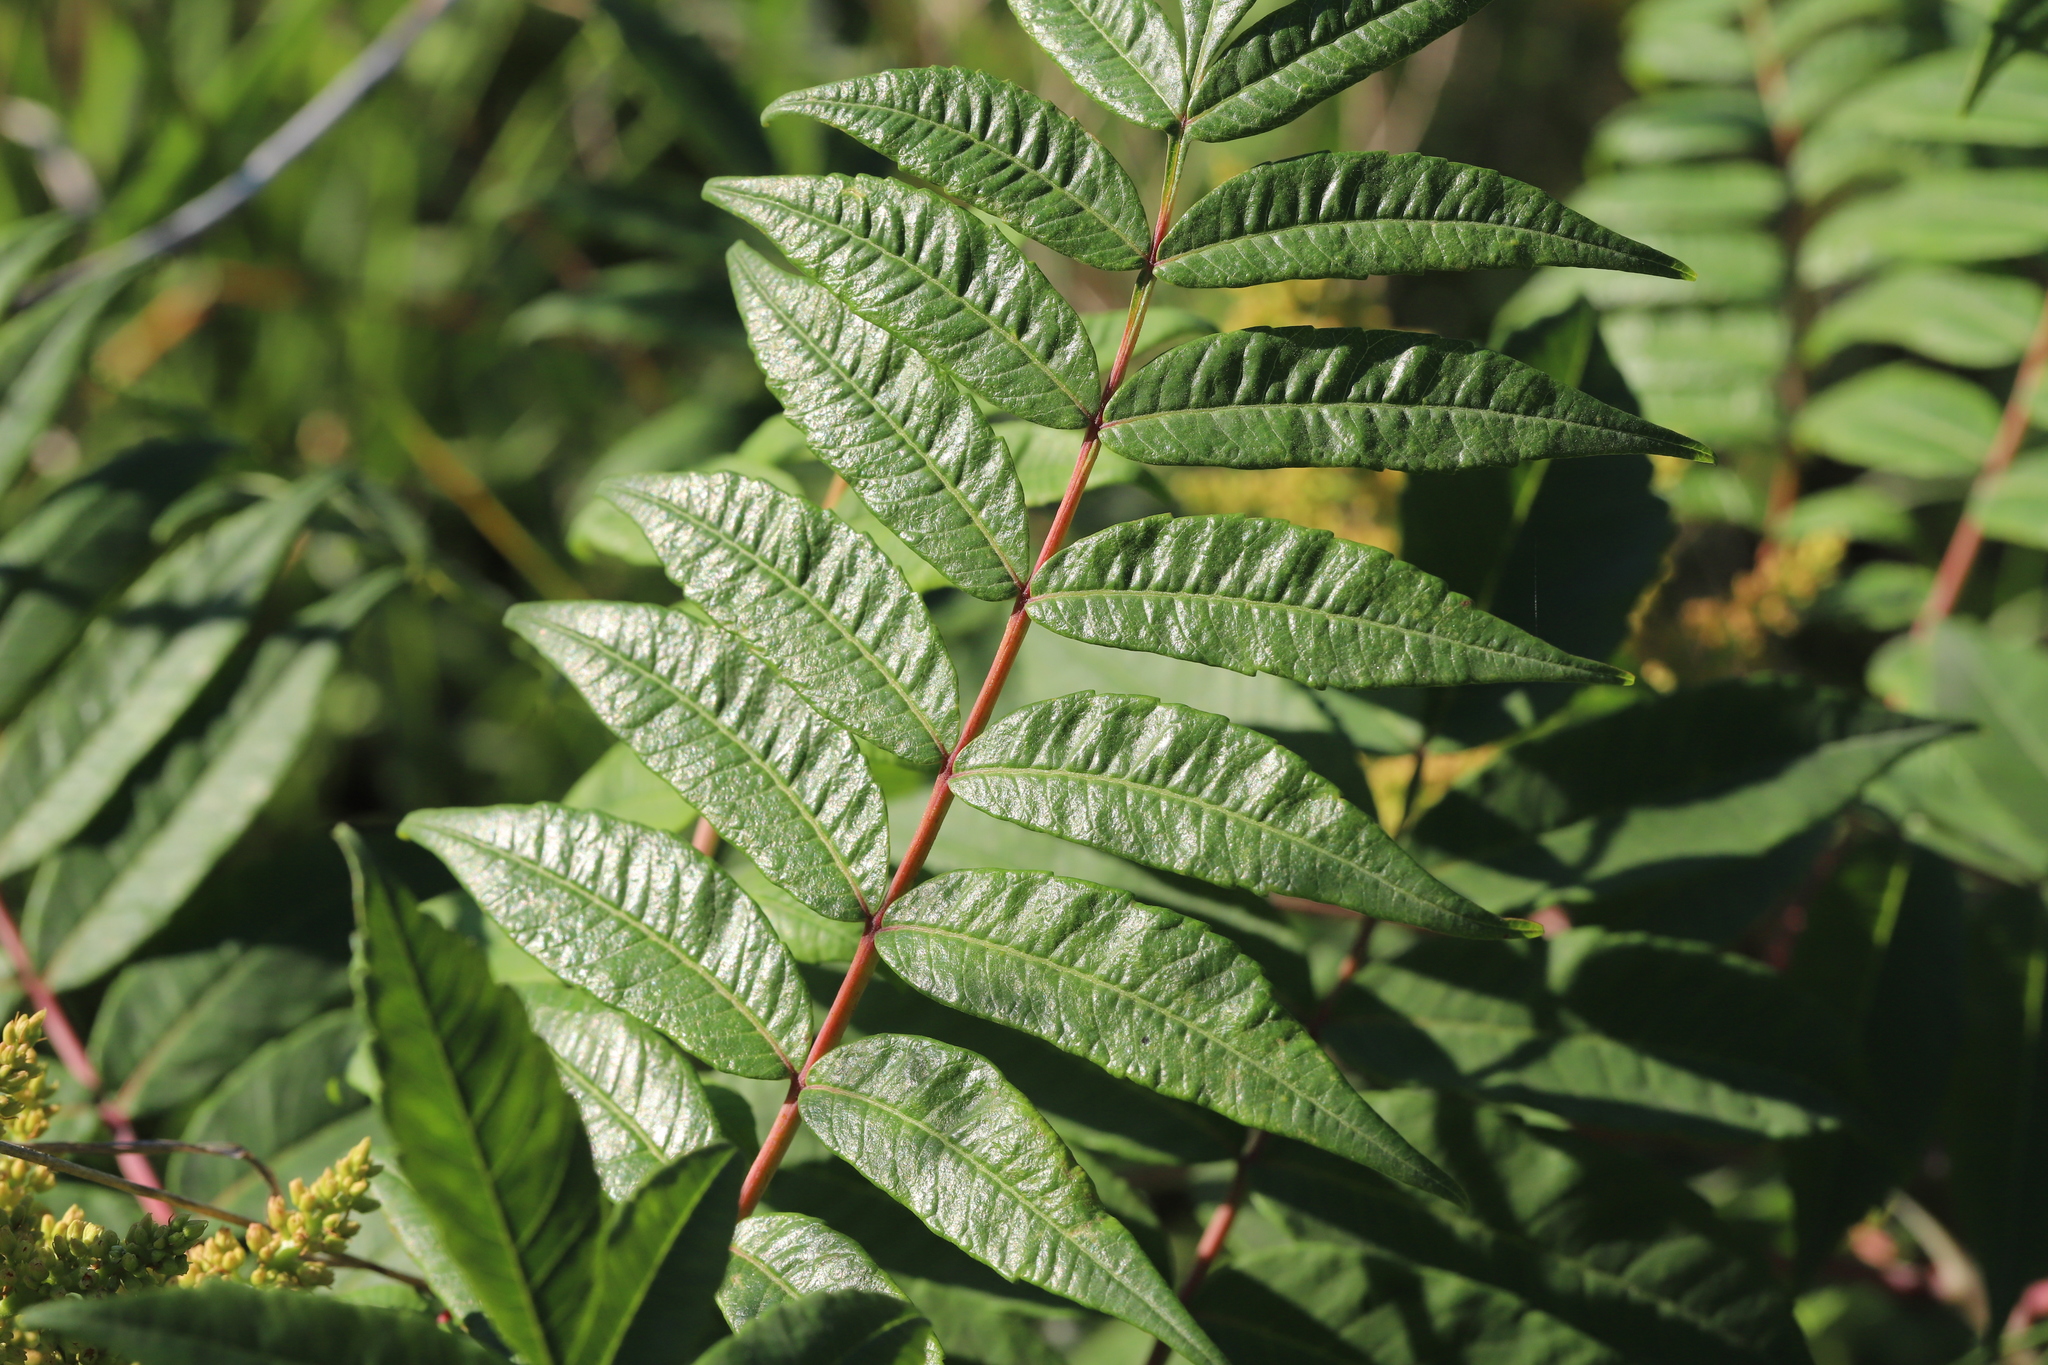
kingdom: Plantae
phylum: Tracheophyta
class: Magnoliopsida
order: Sapindales
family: Anacardiaceae
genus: Rhus
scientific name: Rhus glabra
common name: Scarlet sumac
